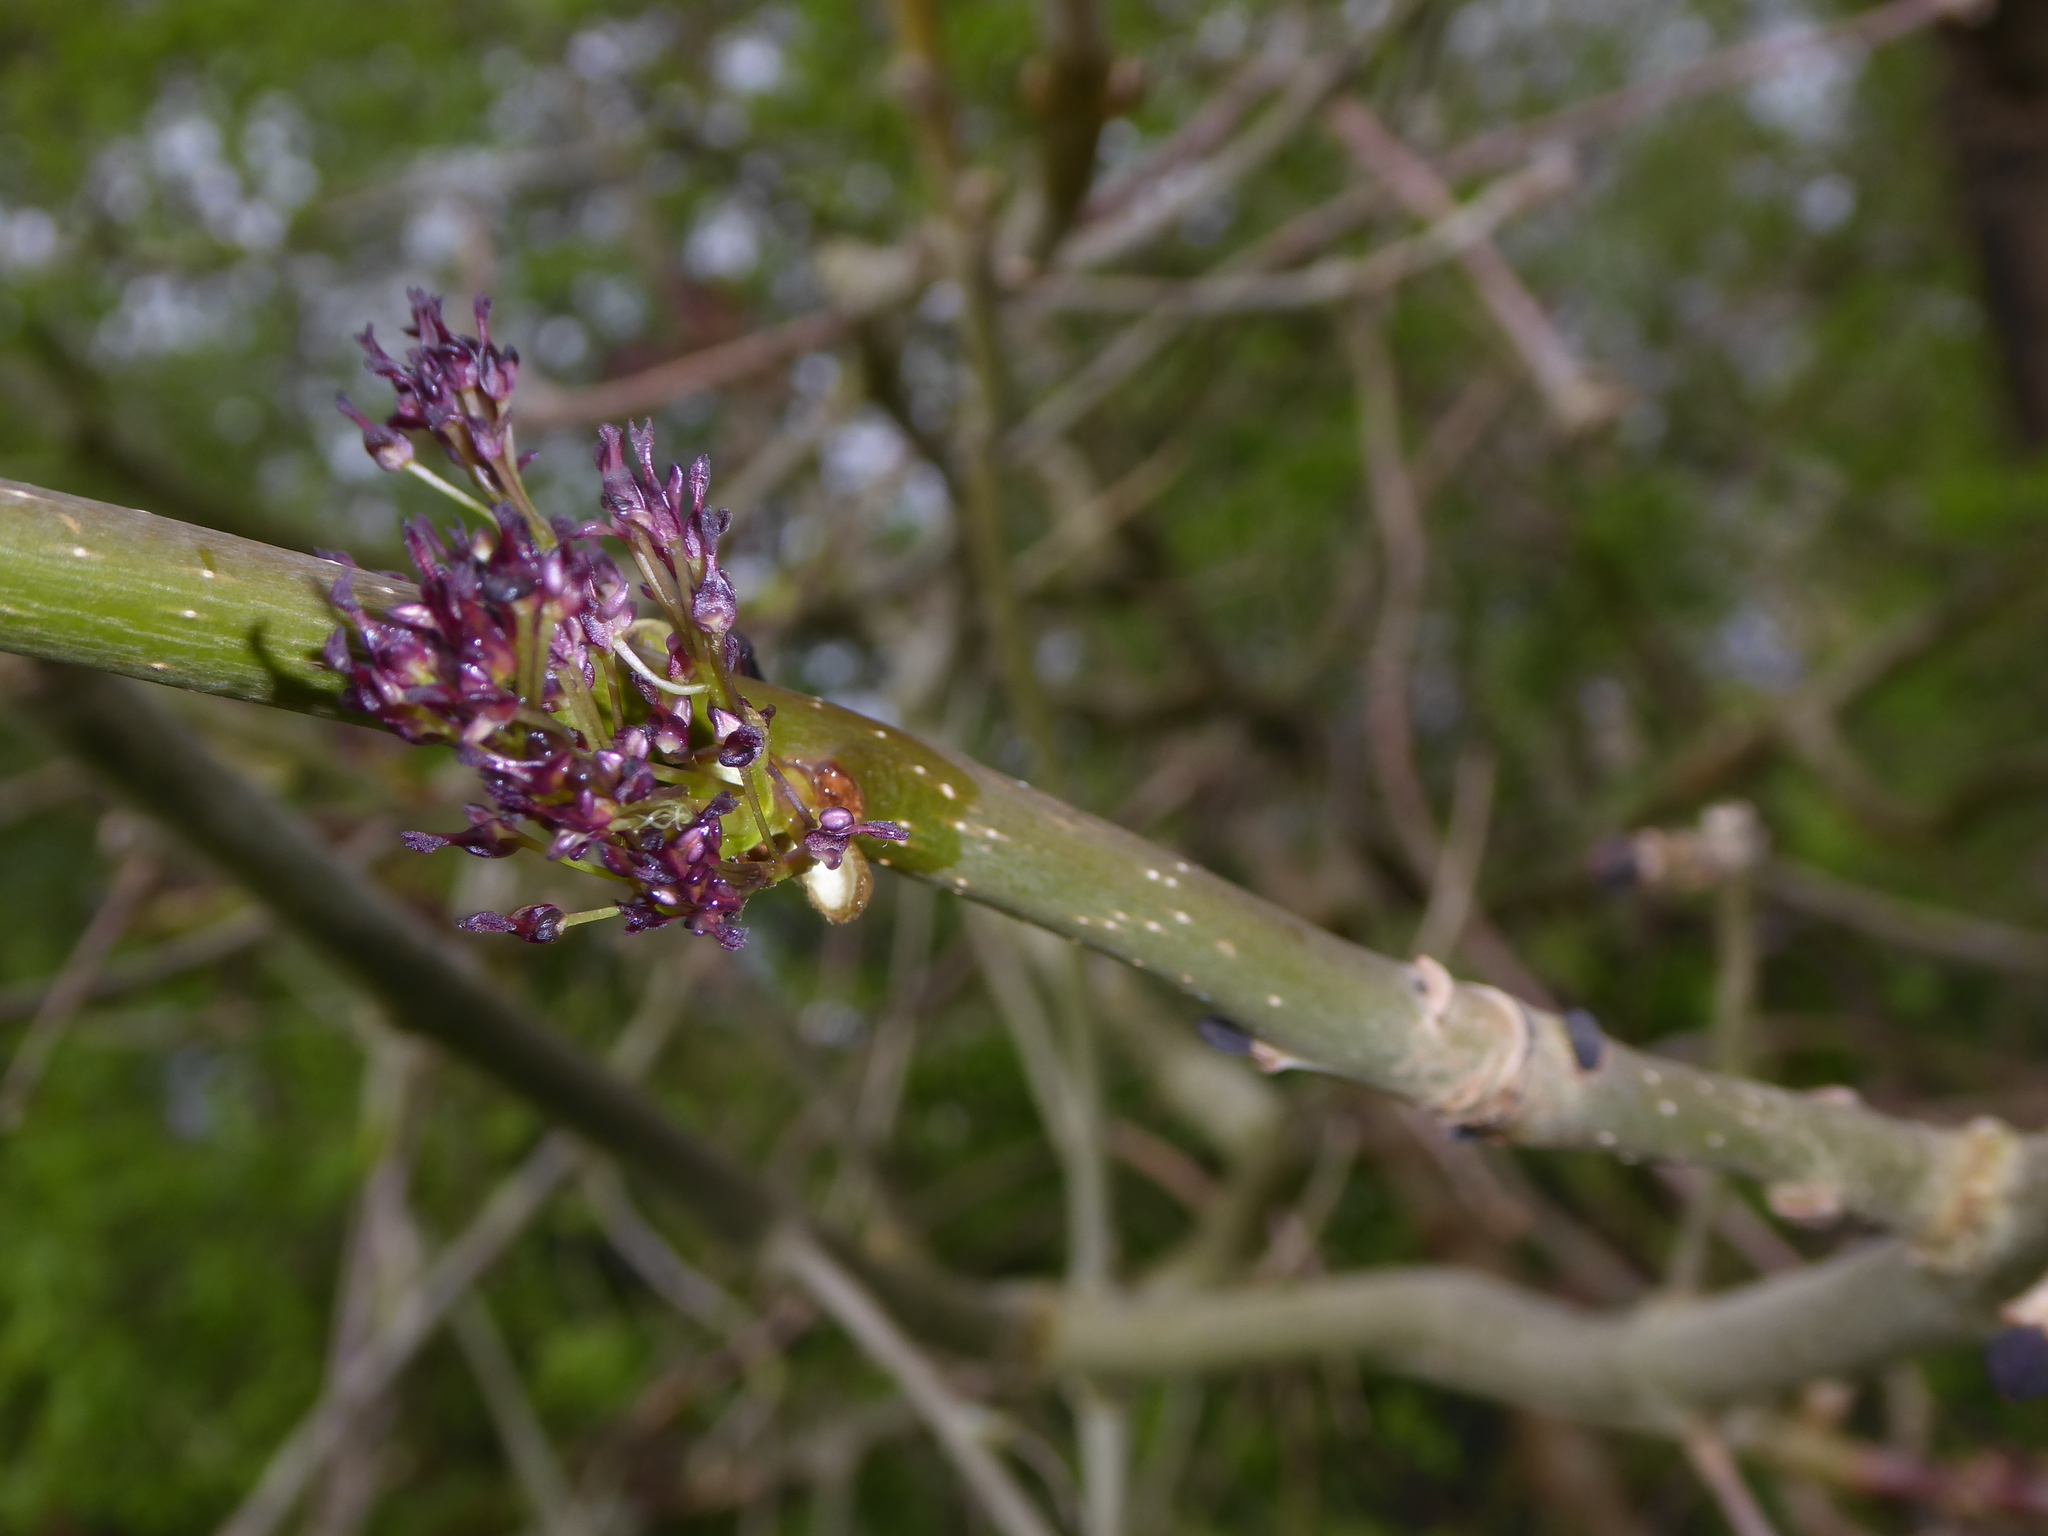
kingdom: Plantae
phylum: Tracheophyta
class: Magnoliopsida
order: Lamiales
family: Oleaceae
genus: Fraxinus
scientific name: Fraxinus excelsior
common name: European ash
